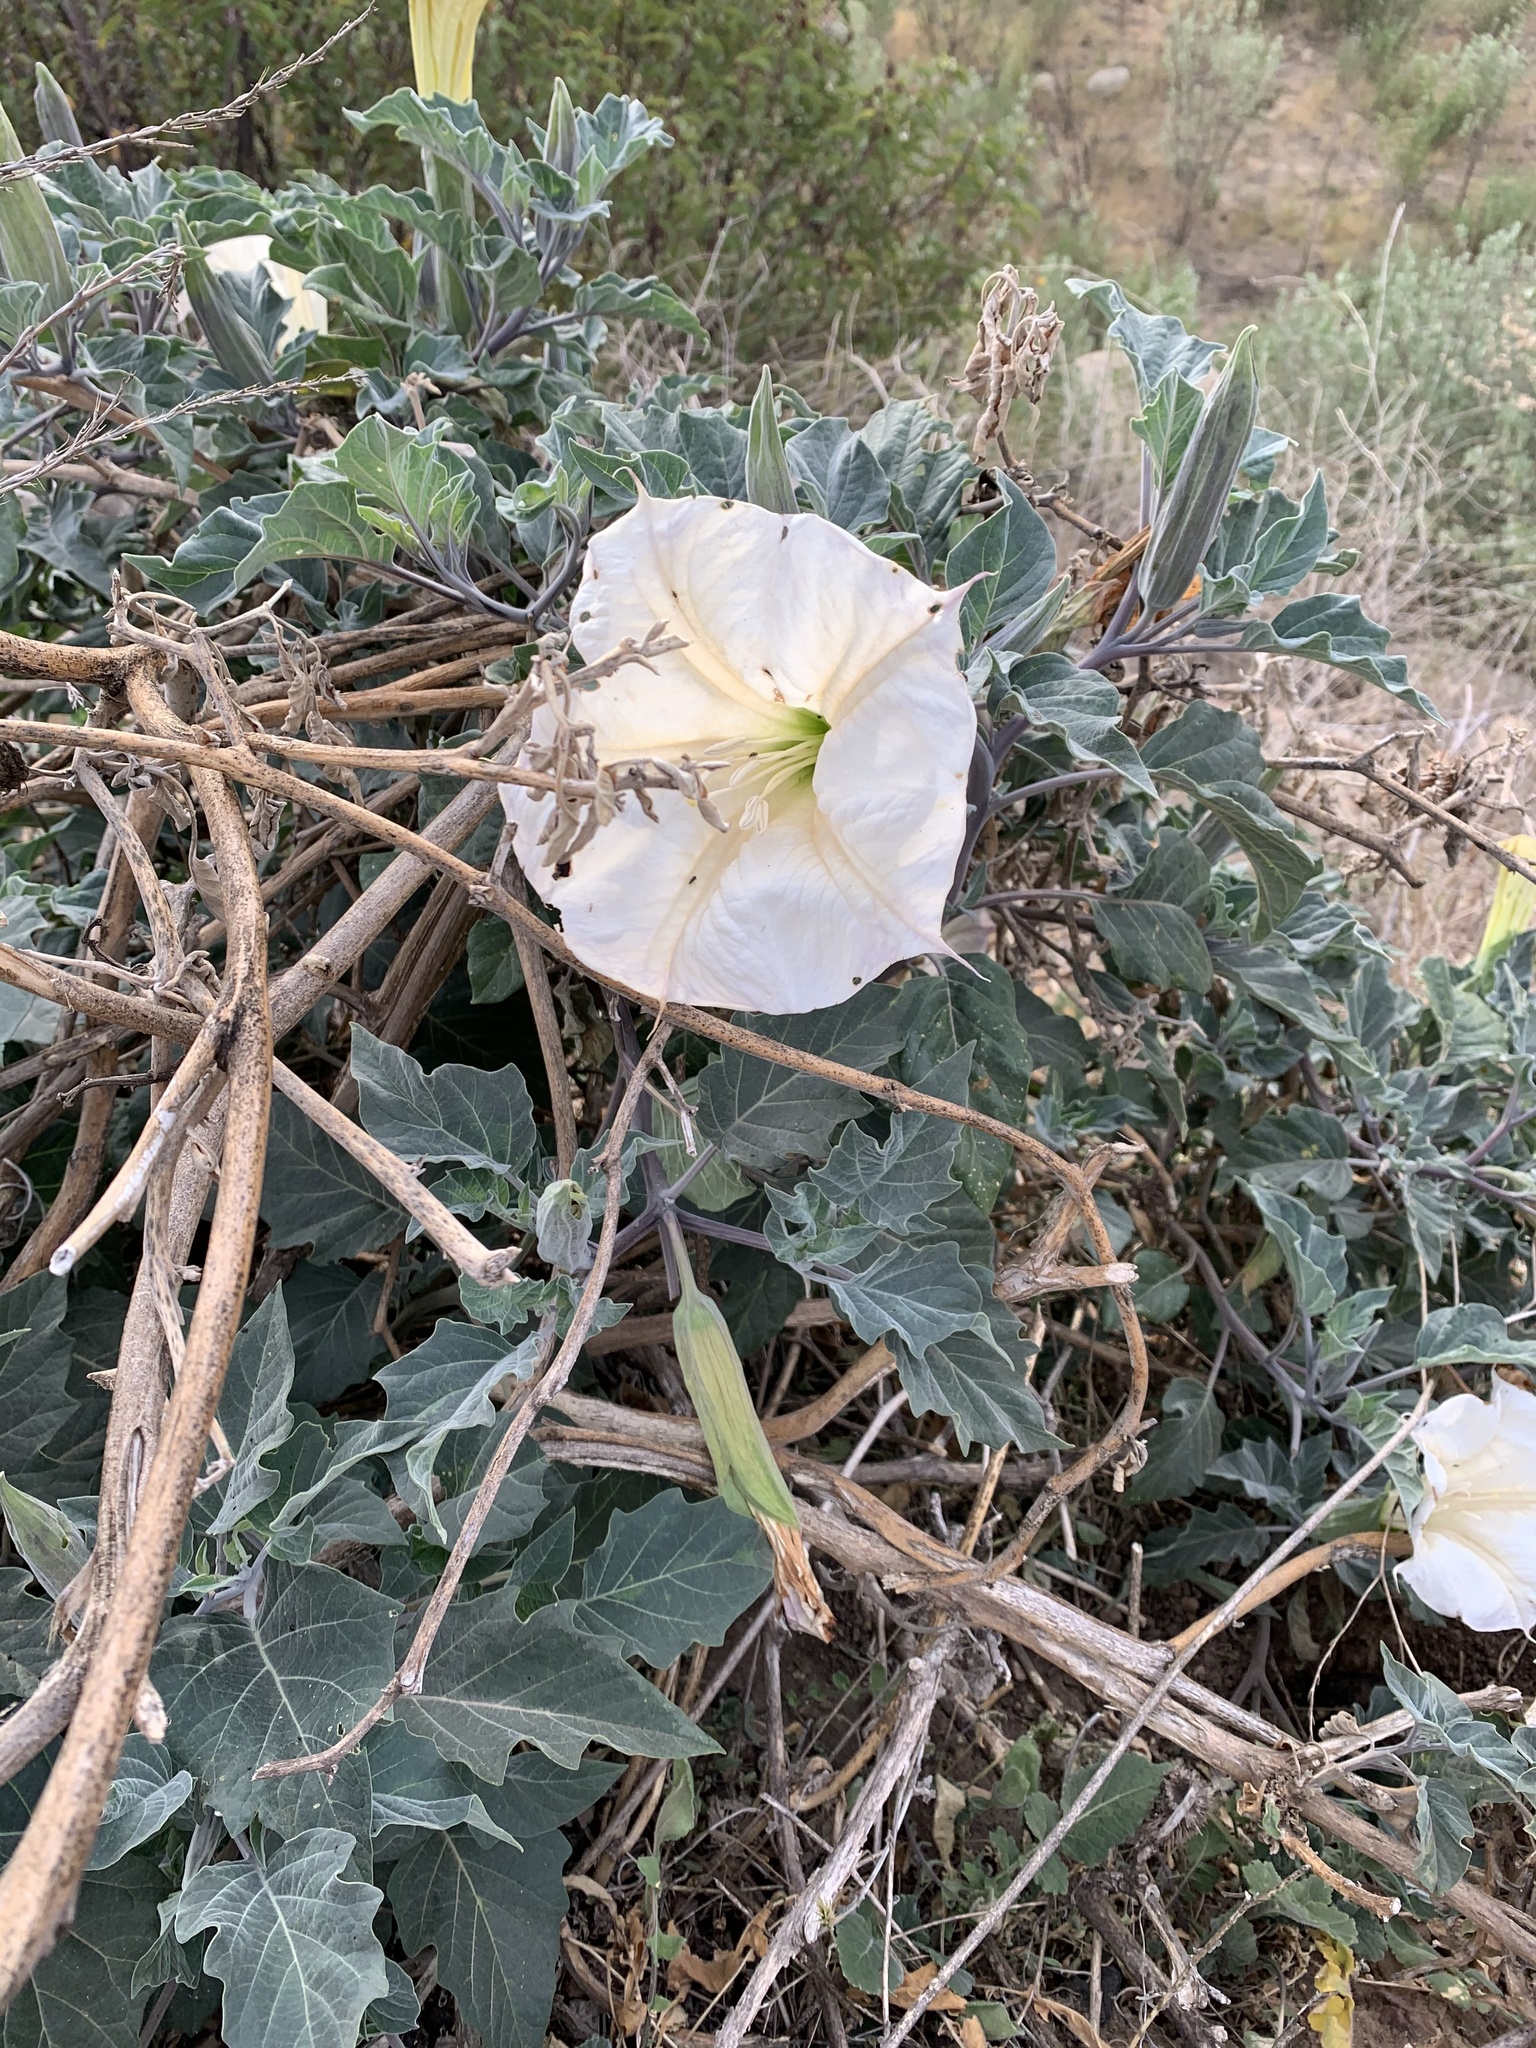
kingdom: Plantae
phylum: Tracheophyta
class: Magnoliopsida
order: Solanales
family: Solanaceae
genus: Datura
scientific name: Datura wrightii
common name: Sacred thorn-apple
